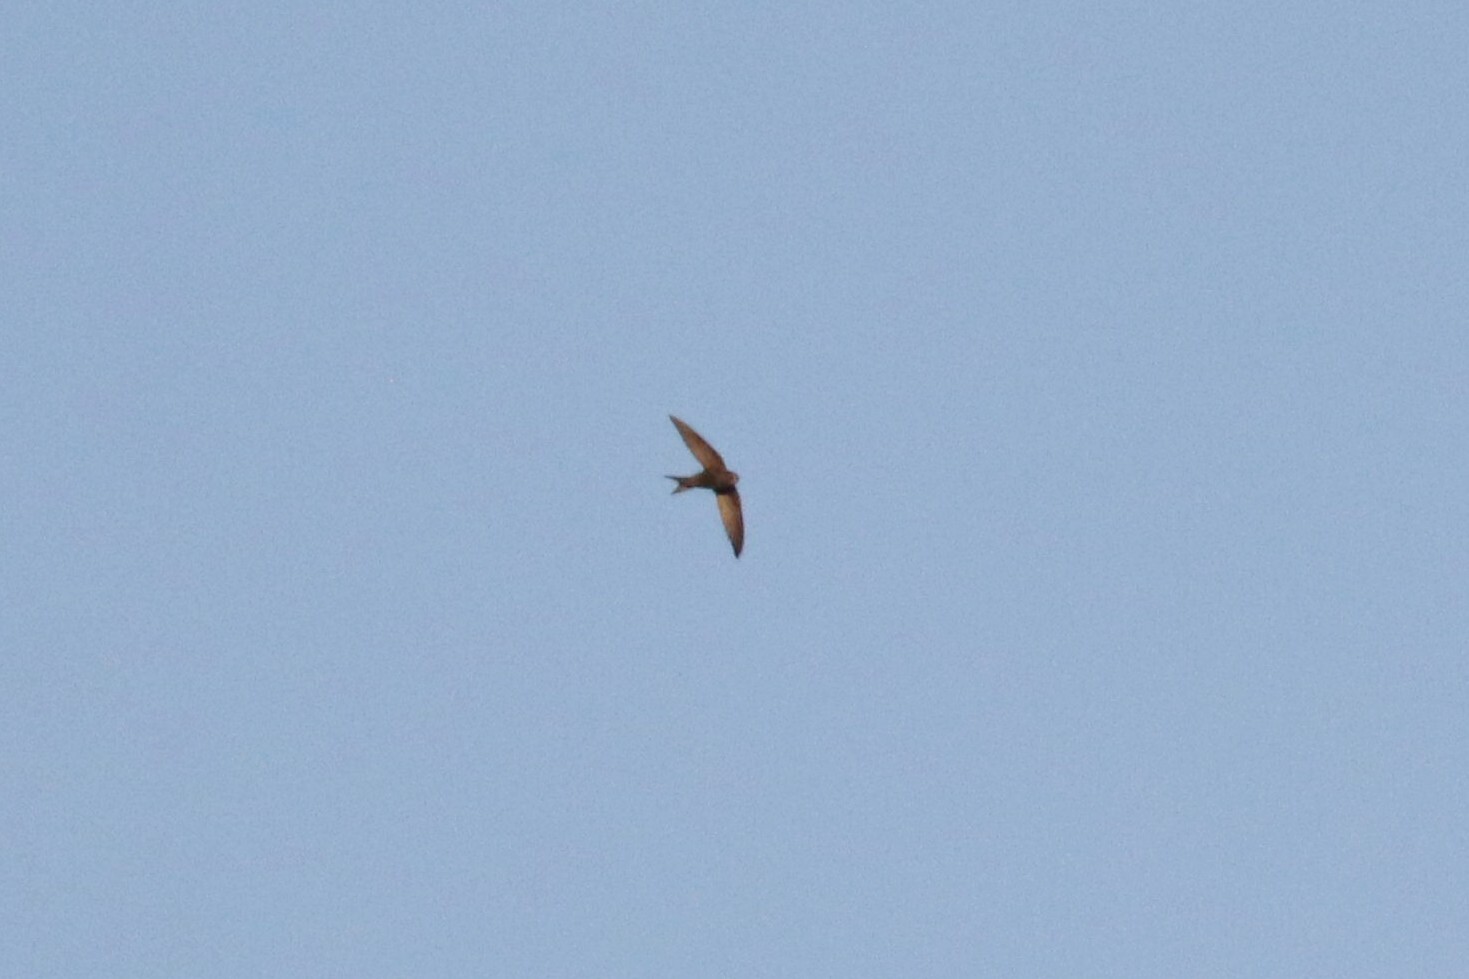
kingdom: Animalia
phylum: Chordata
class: Aves
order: Apodiformes
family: Apodidae
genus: Apus
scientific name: Apus apus
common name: Common swift
